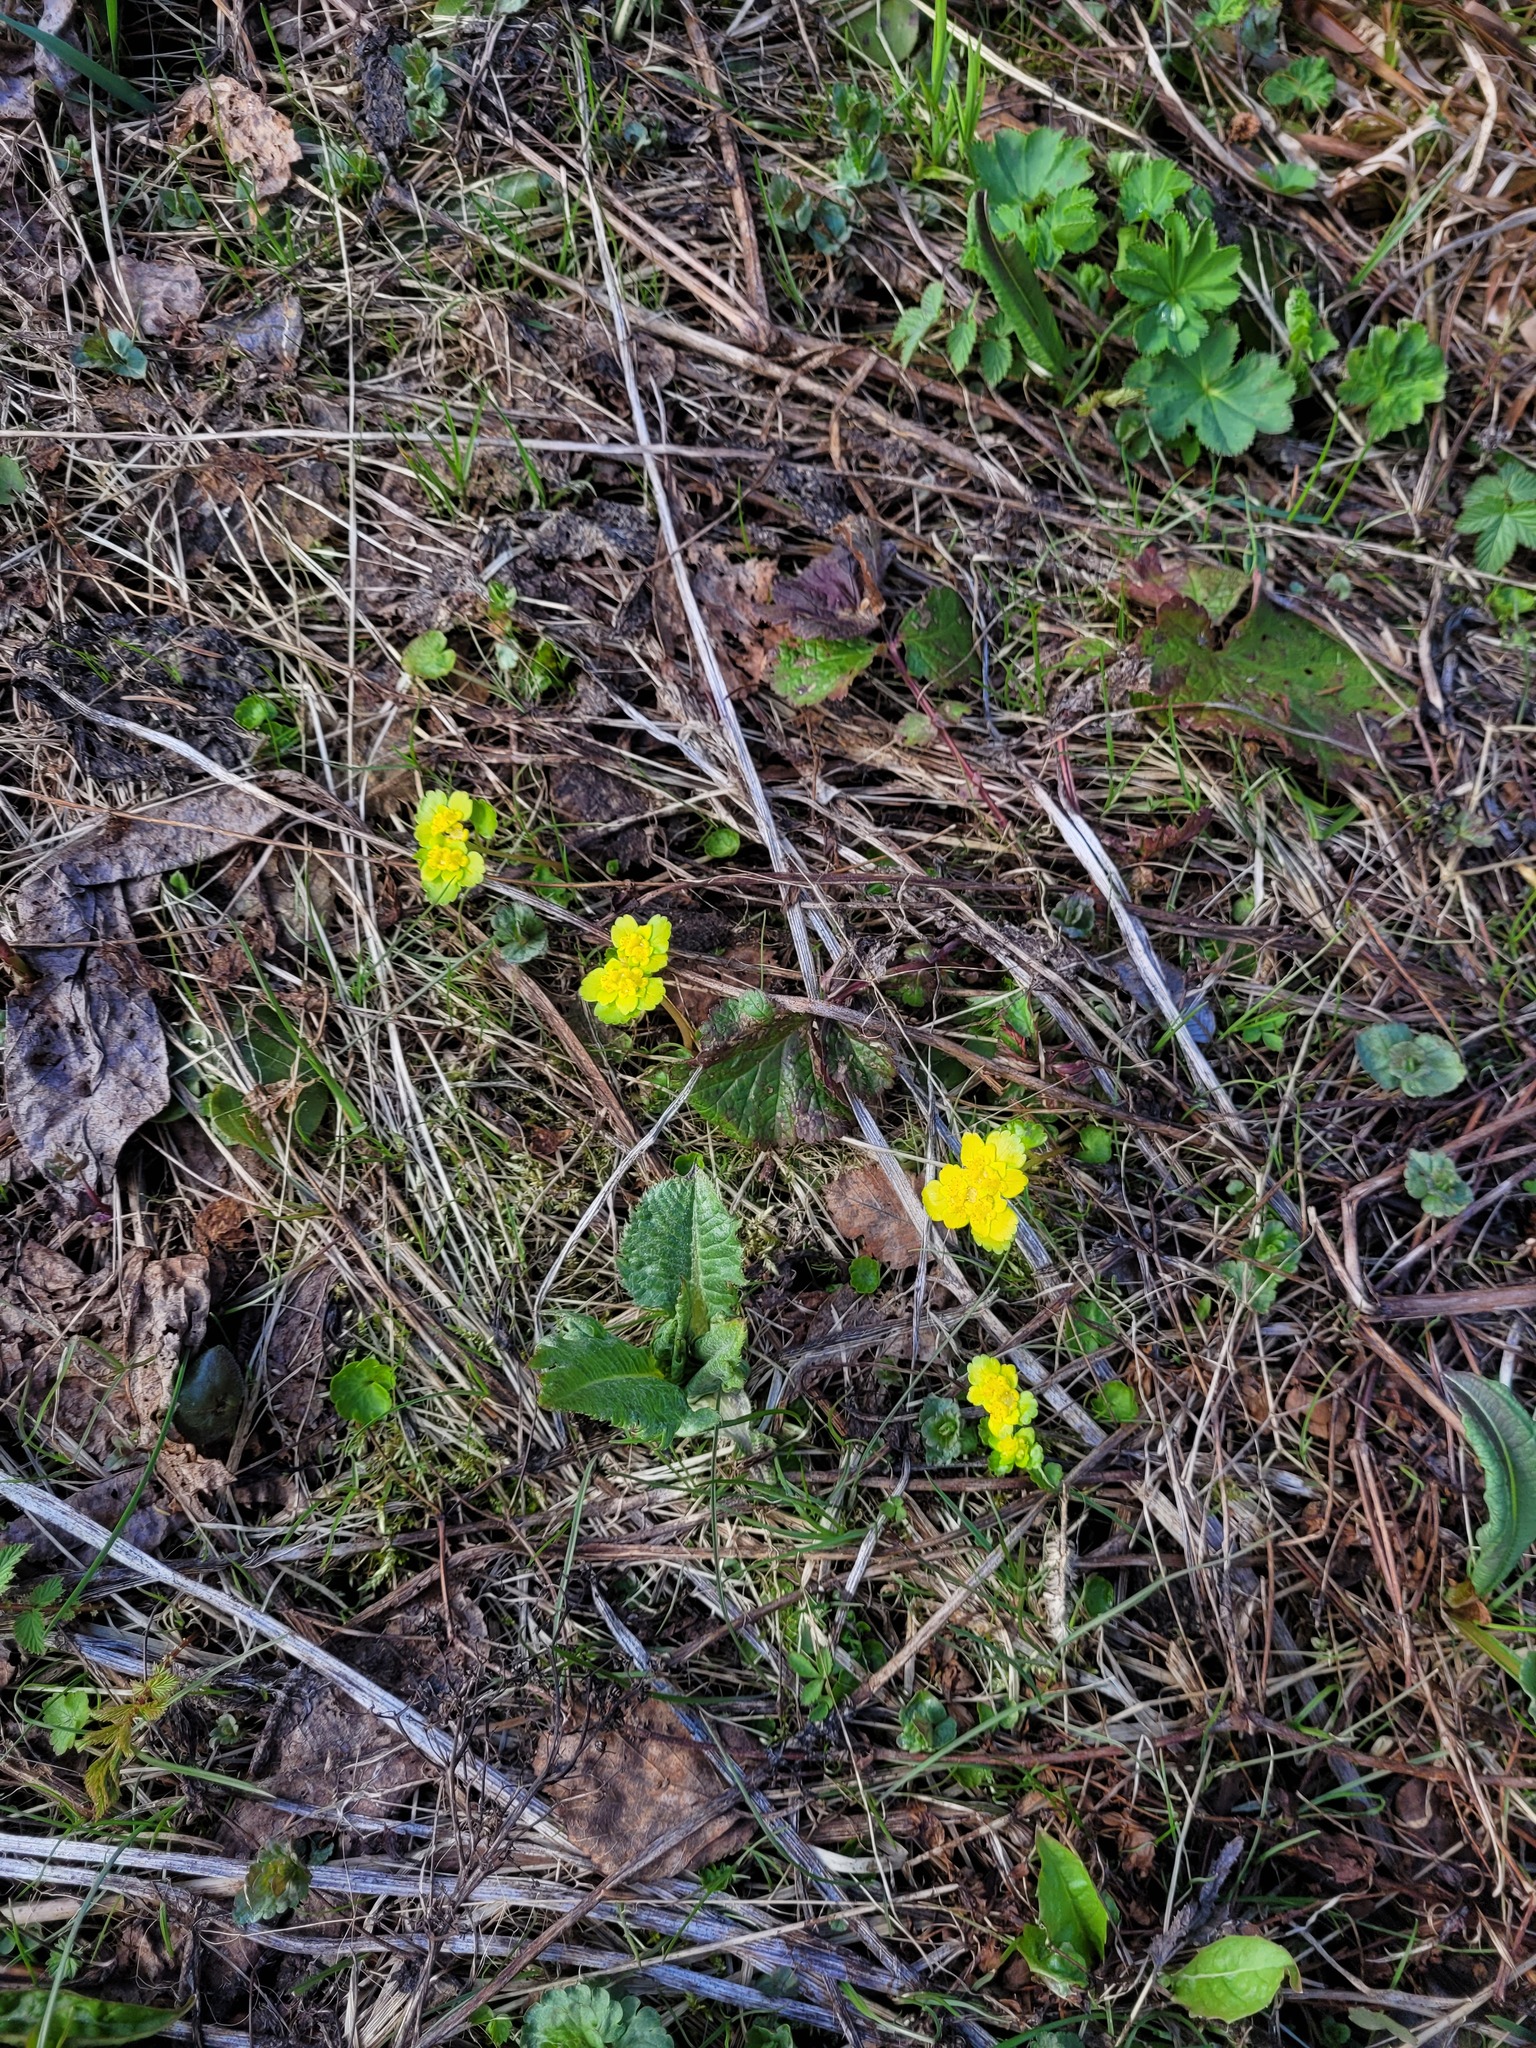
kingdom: Plantae
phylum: Tracheophyta
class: Magnoliopsida
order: Saxifragales
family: Saxifragaceae
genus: Chrysosplenium
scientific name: Chrysosplenium alternifolium
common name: Alternate-leaved golden-saxifrage
